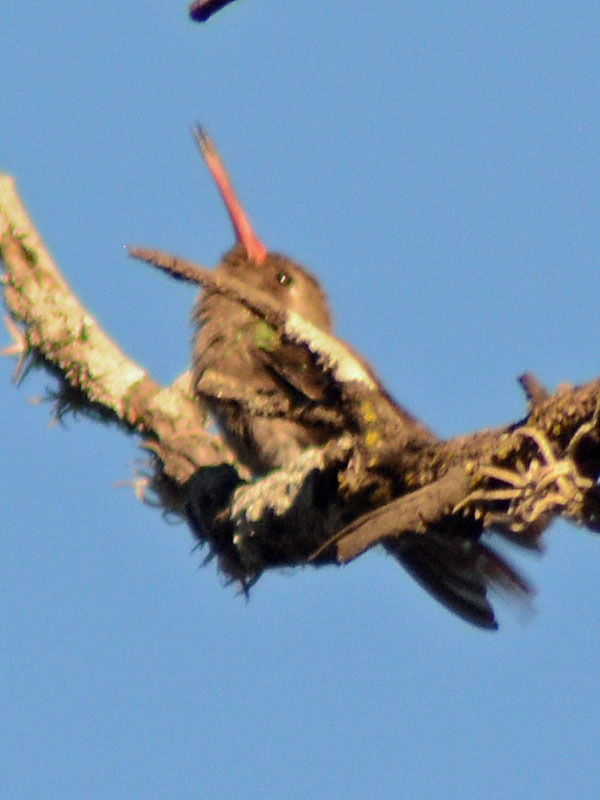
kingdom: Animalia
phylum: Chordata
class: Aves
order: Apodiformes
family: Trochilidae
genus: Phaeoptila
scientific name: Phaeoptila sordida
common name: Dusky hummingbird
